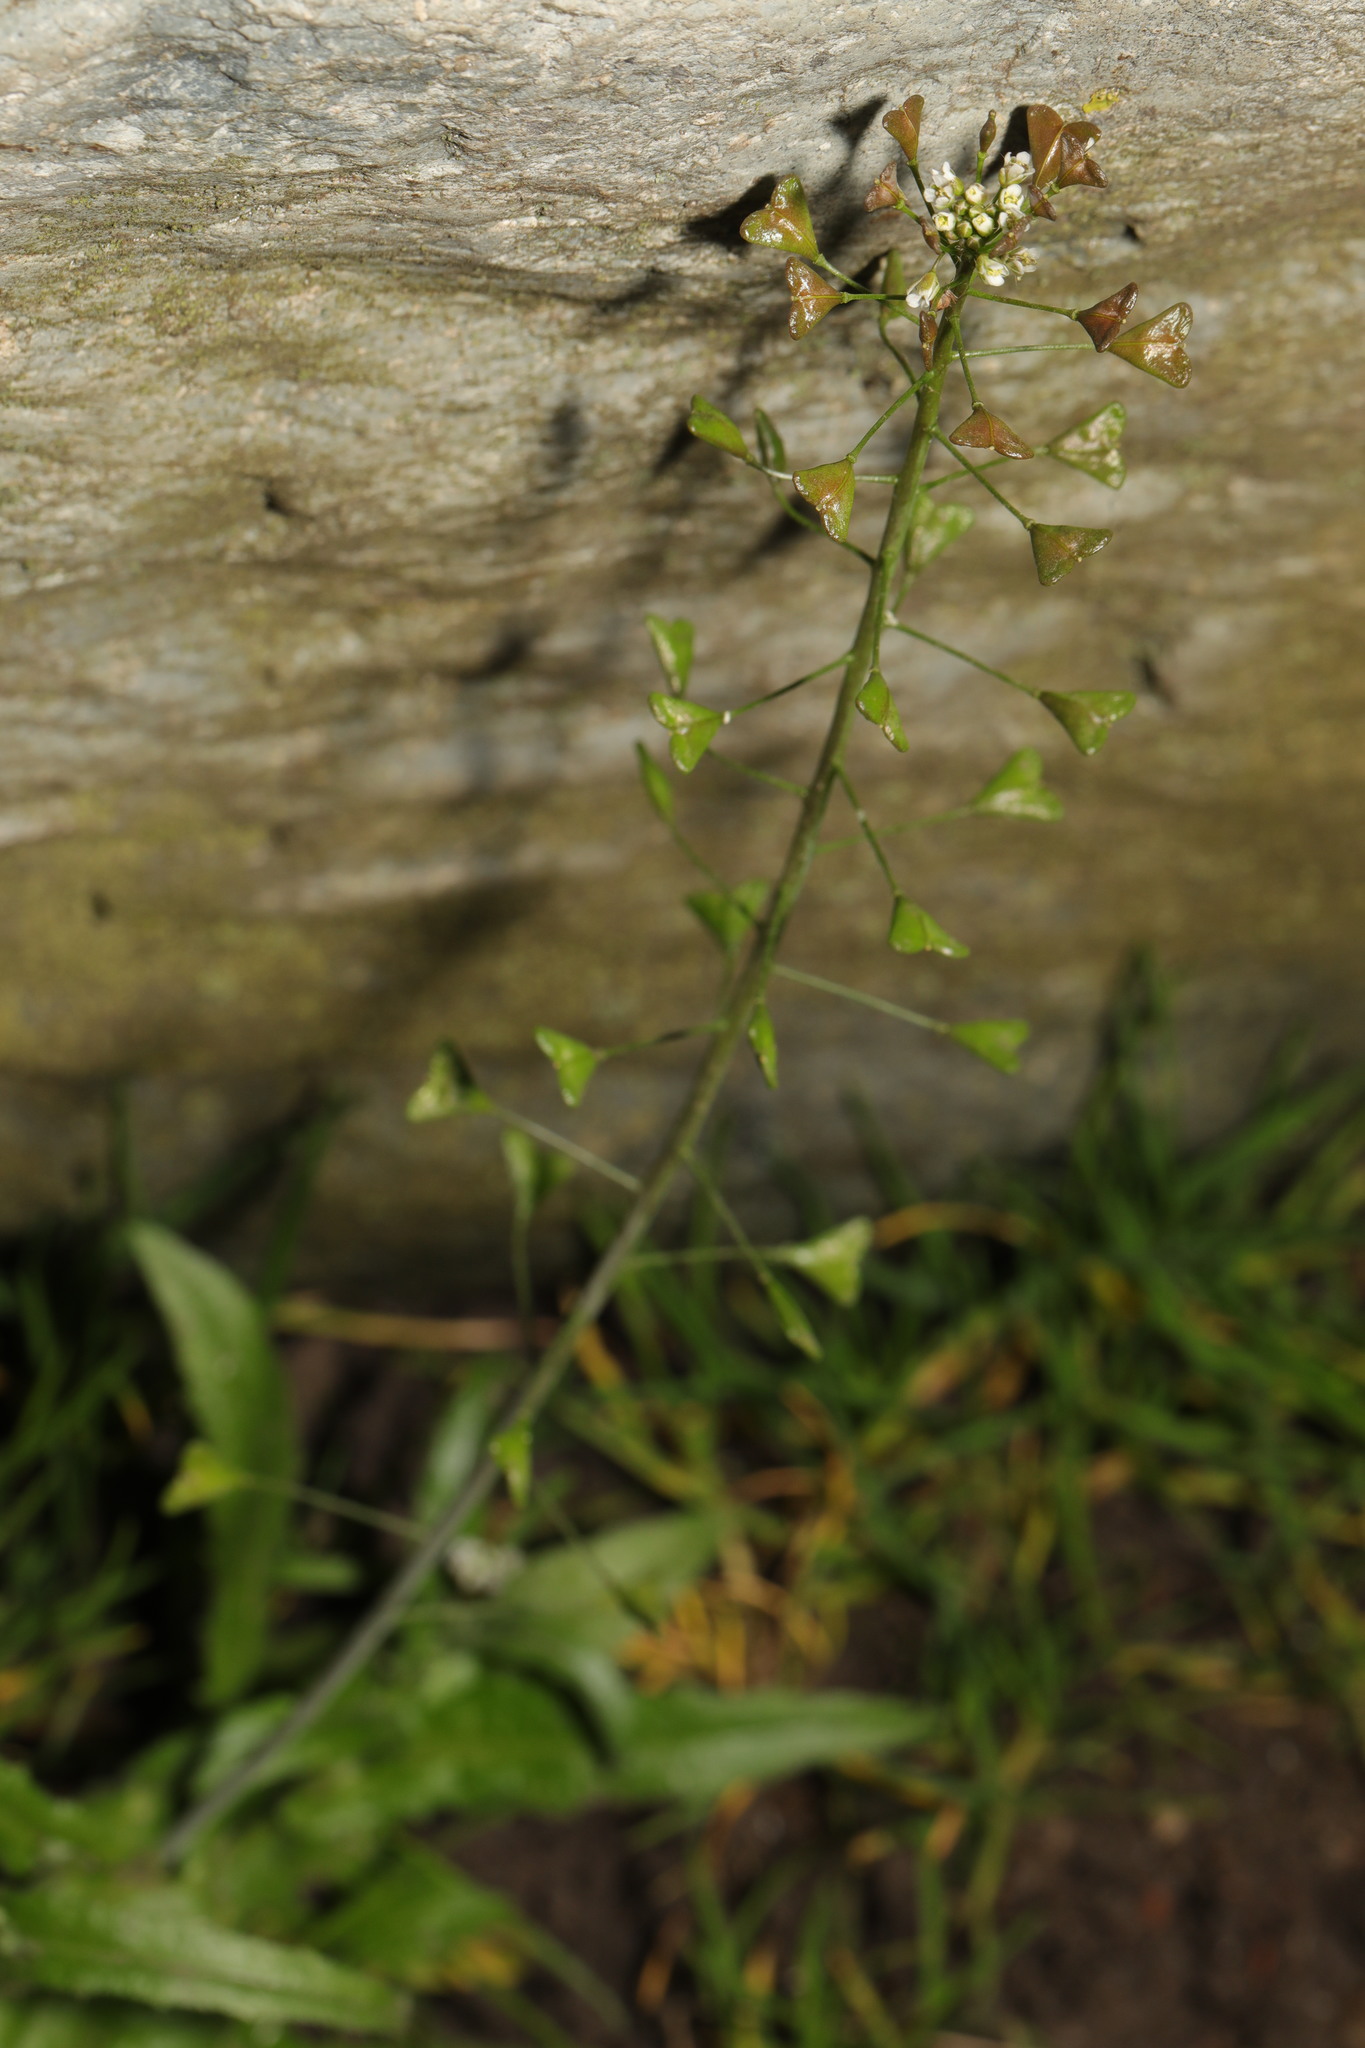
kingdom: Plantae
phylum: Tracheophyta
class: Magnoliopsida
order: Brassicales
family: Brassicaceae
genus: Capsella
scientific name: Capsella bursa-pastoris
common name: Shepherd's purse
